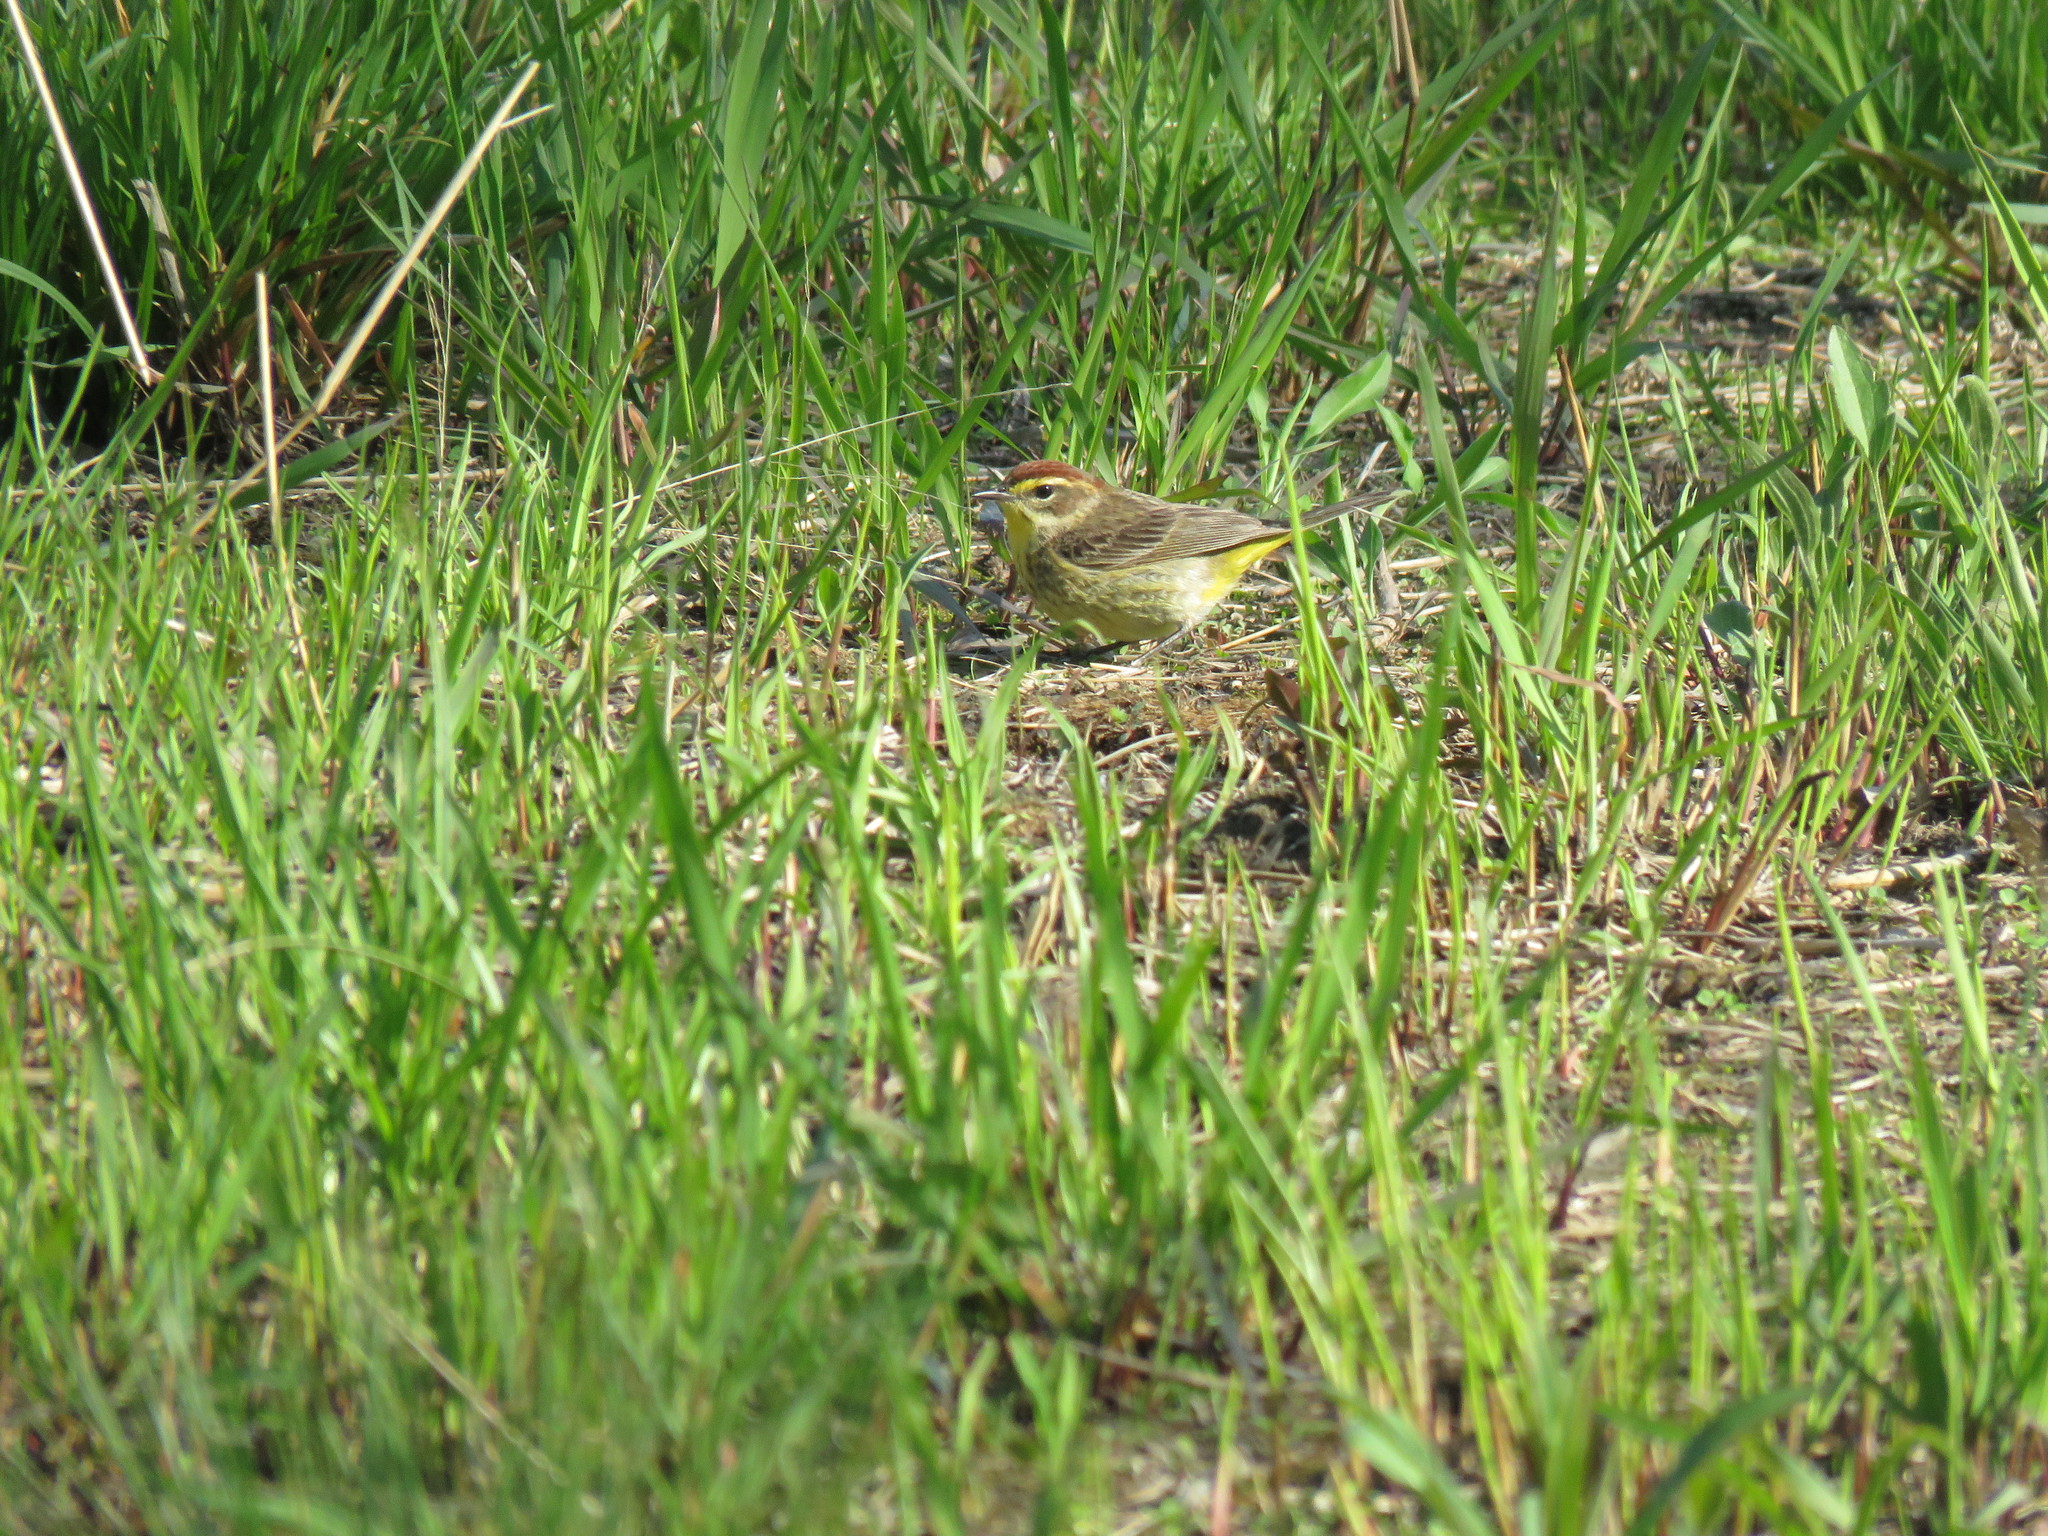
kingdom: Animalia
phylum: Chordata
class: Aves
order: Passeriformes
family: Parulidae
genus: Setophaga
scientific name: Setophaga palmarum
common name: Palm warbler
